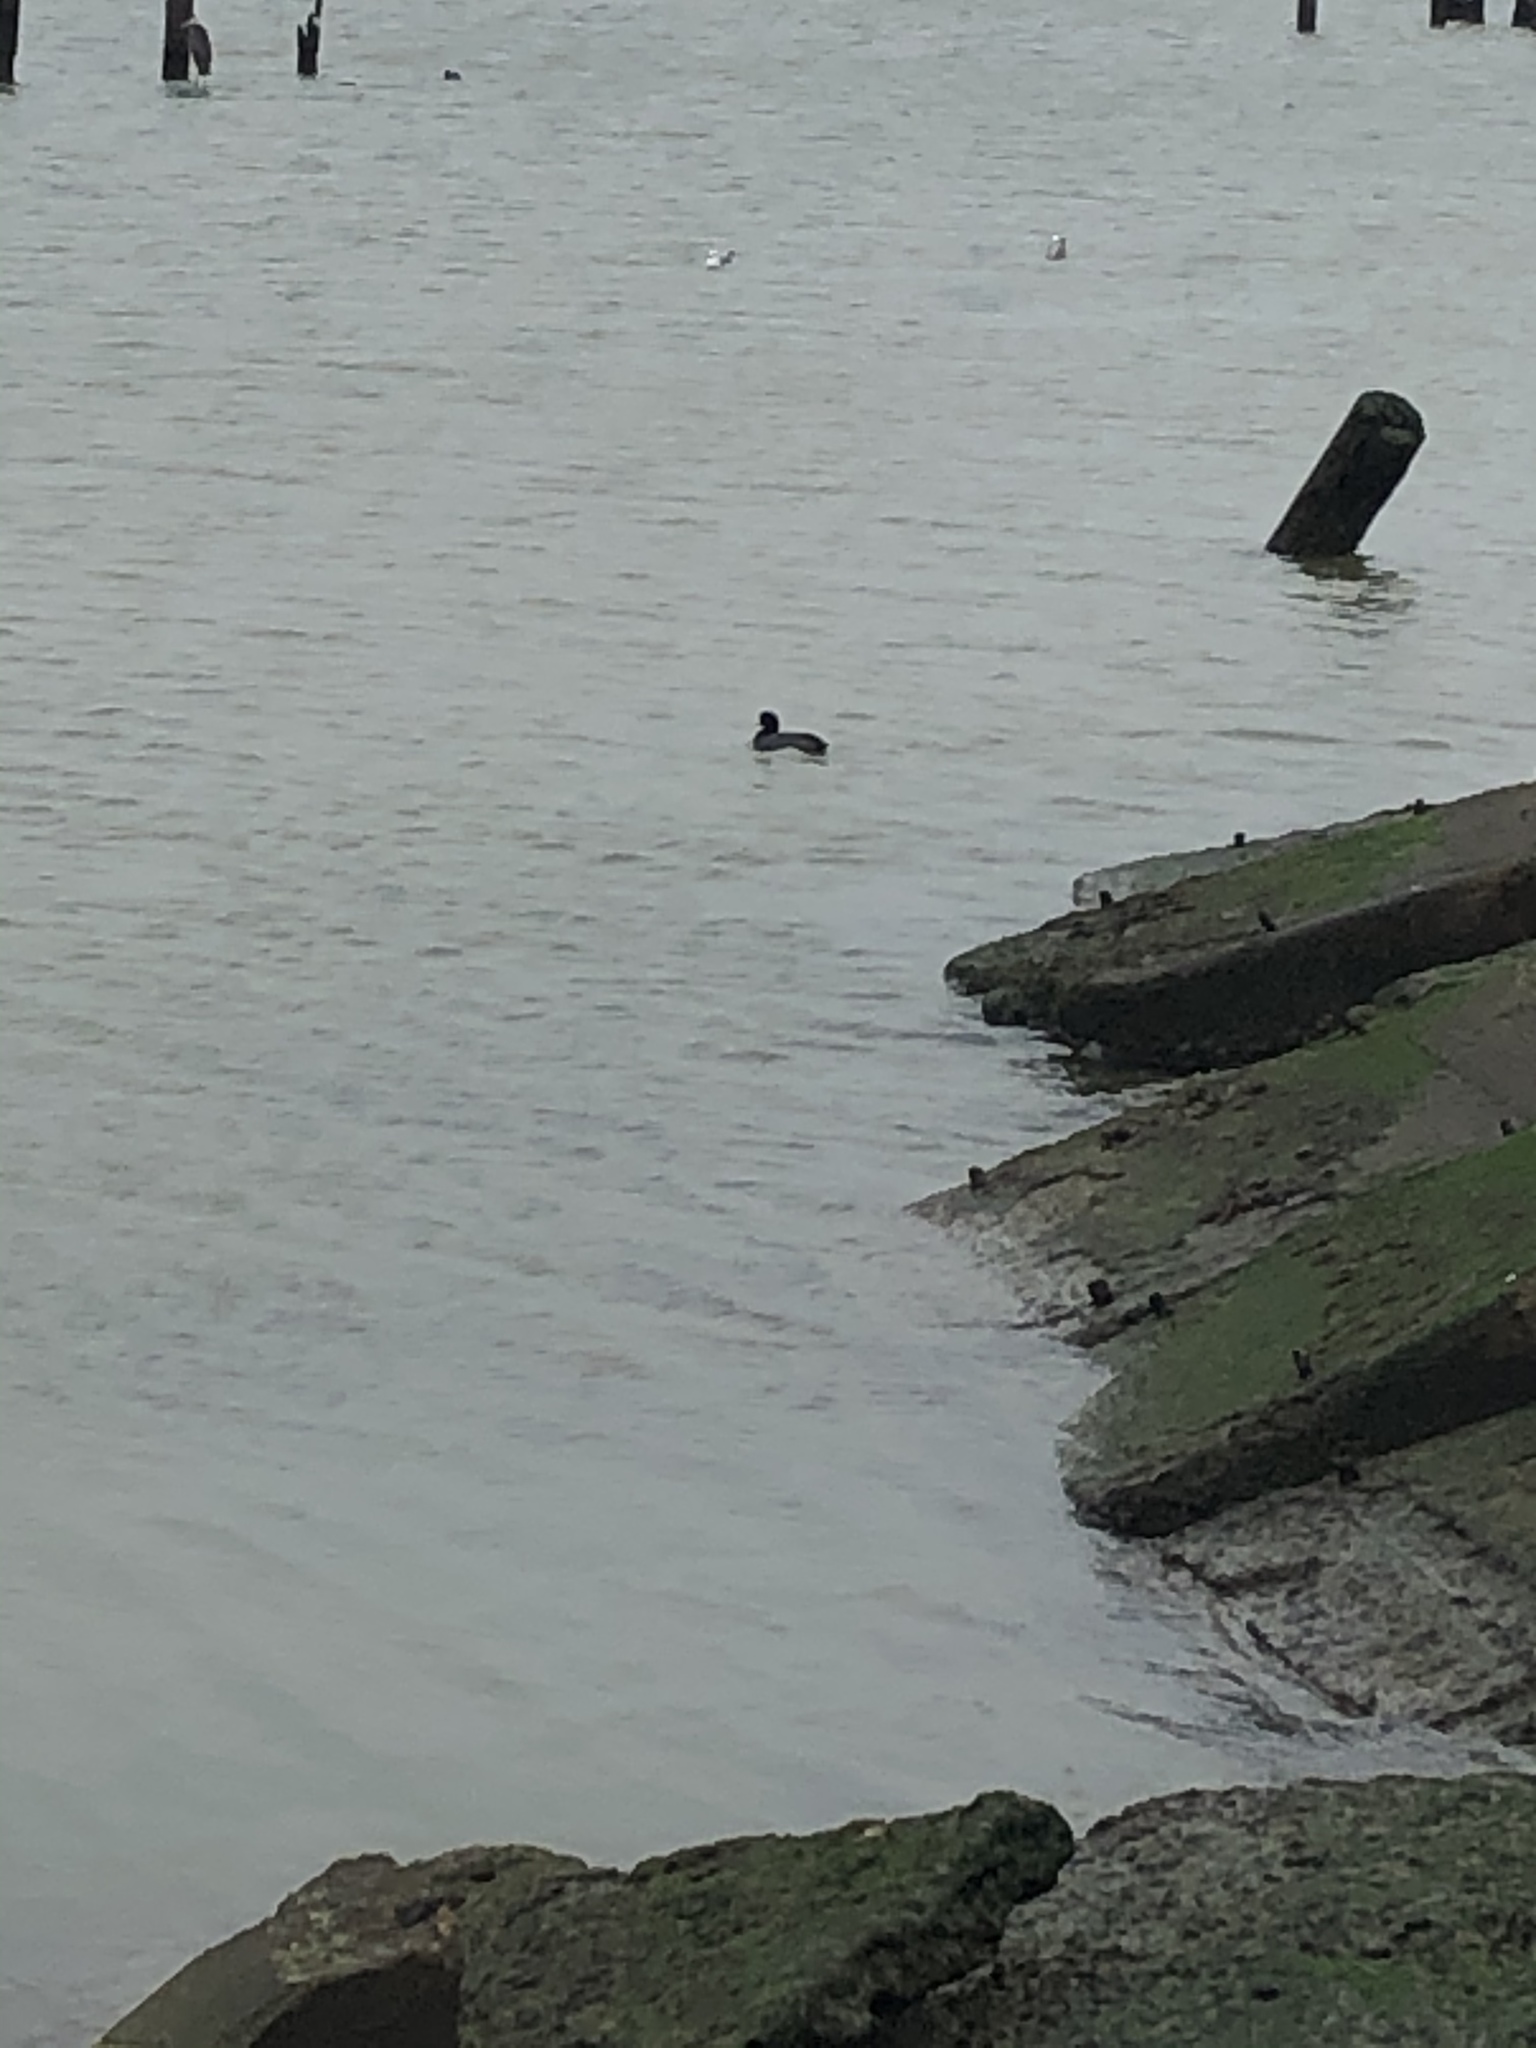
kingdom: Animalia
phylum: Chordata
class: Aves
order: Gruiformes
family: Rallidae
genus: Fulica
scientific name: Fulica americana
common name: American coot
